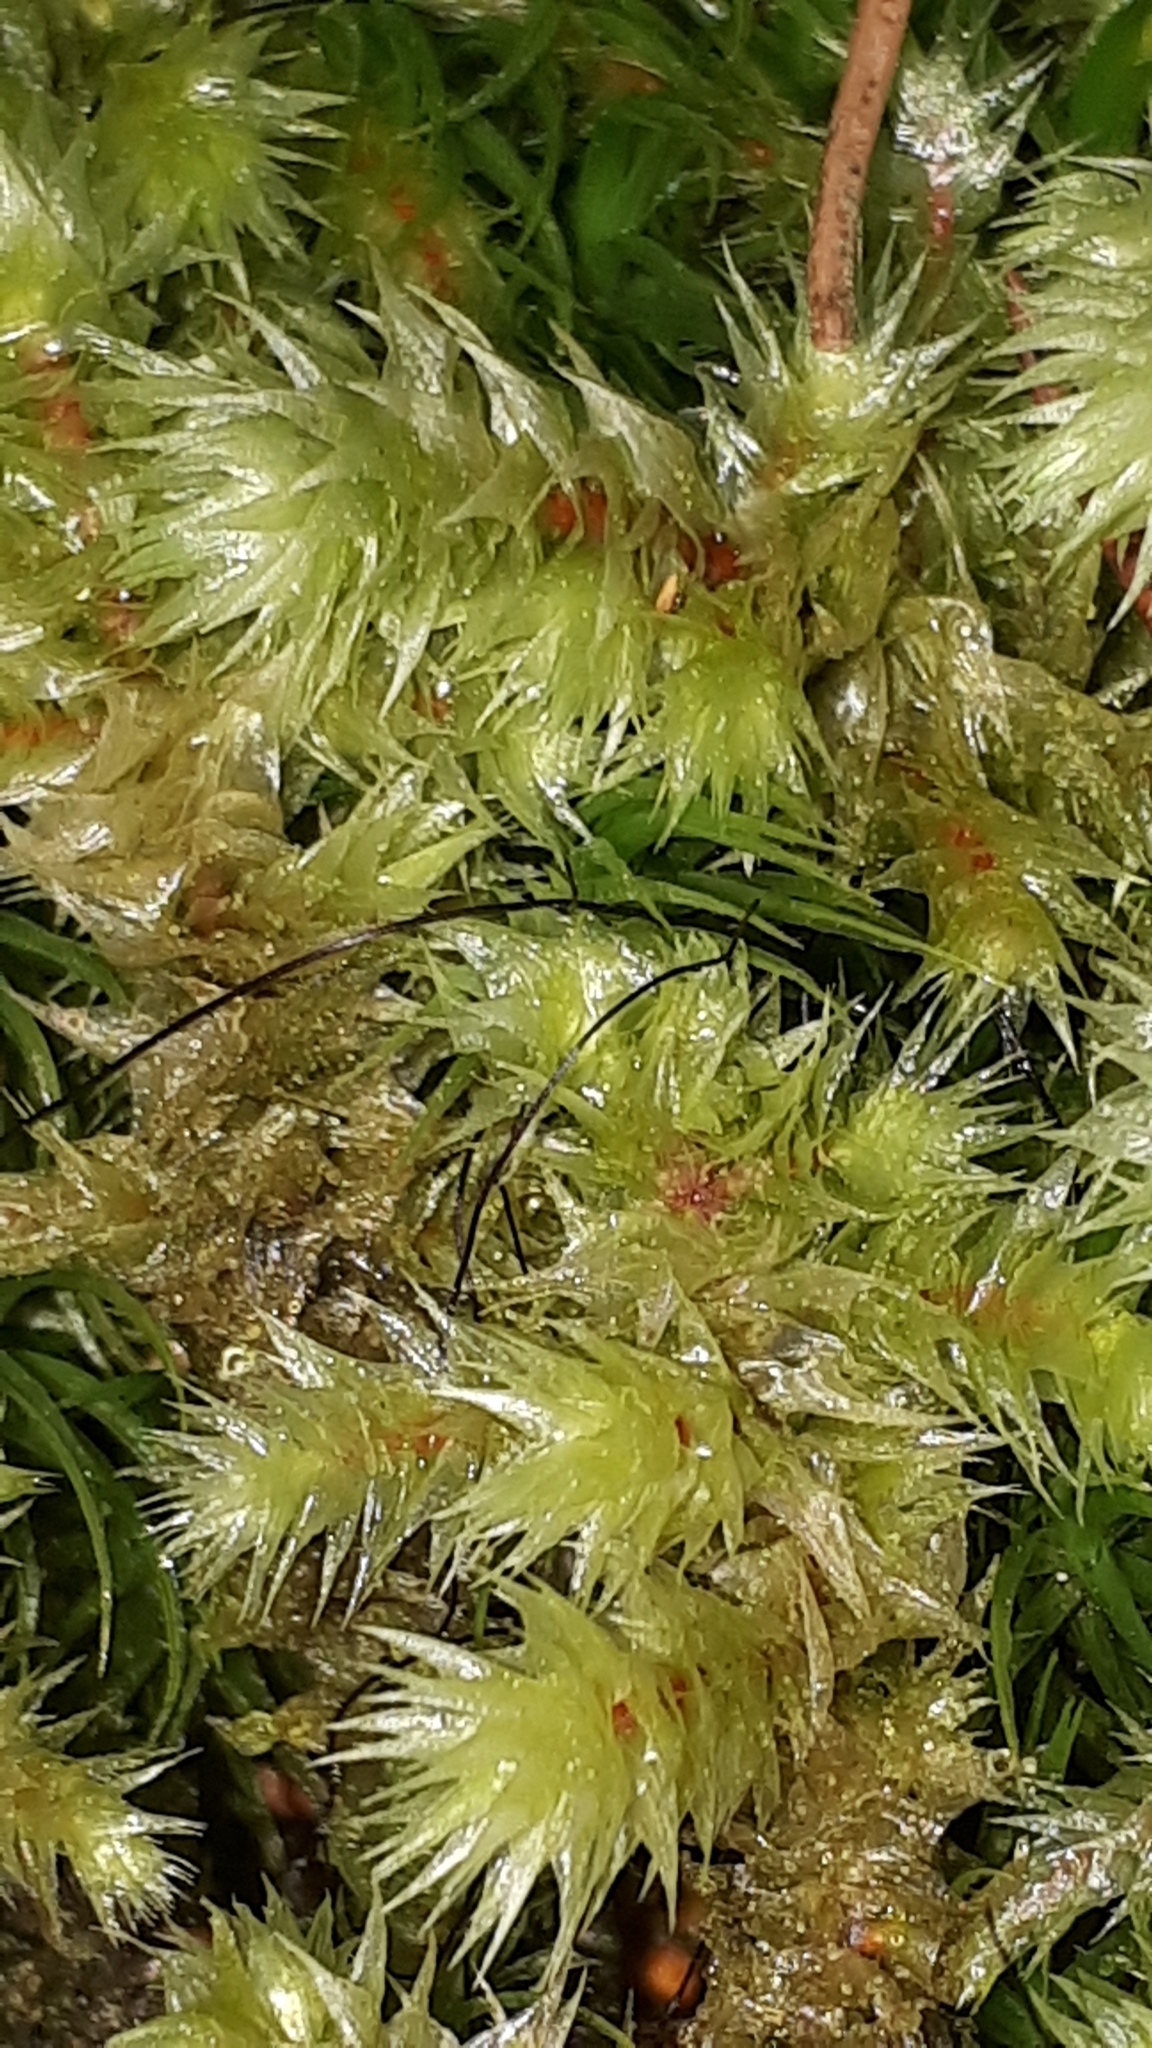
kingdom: Plantae
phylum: Bryophyta
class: Bryopsida
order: Hypnales
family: Hylocomiaceae
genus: Hylocomiadelphus
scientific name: Hylocomiadelphus triquetrus
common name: Rough goose neck moss
